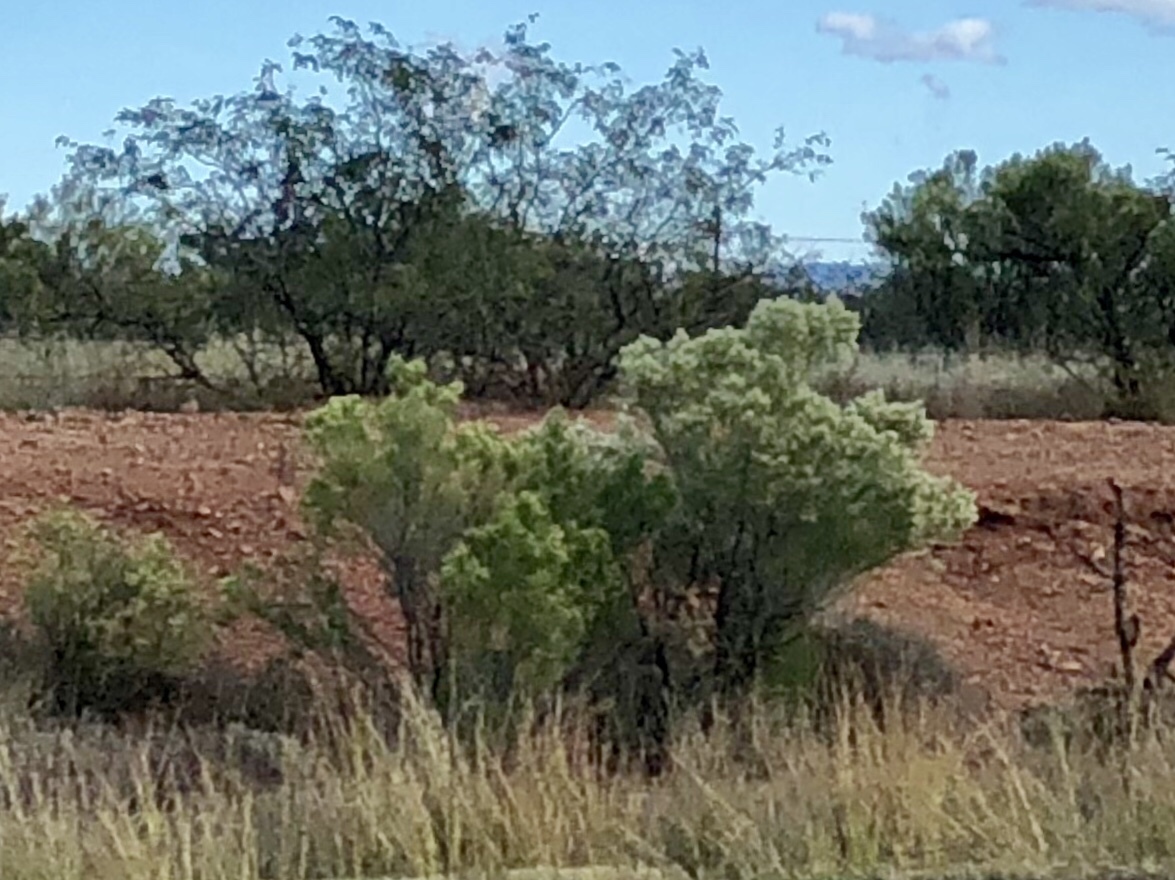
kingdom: Plantae
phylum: Tracheophyta
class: Magnoliopsida
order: Asterales
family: Asteraceae
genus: Baccharis
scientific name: Baccharis sarothroides
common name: Desert-broom
